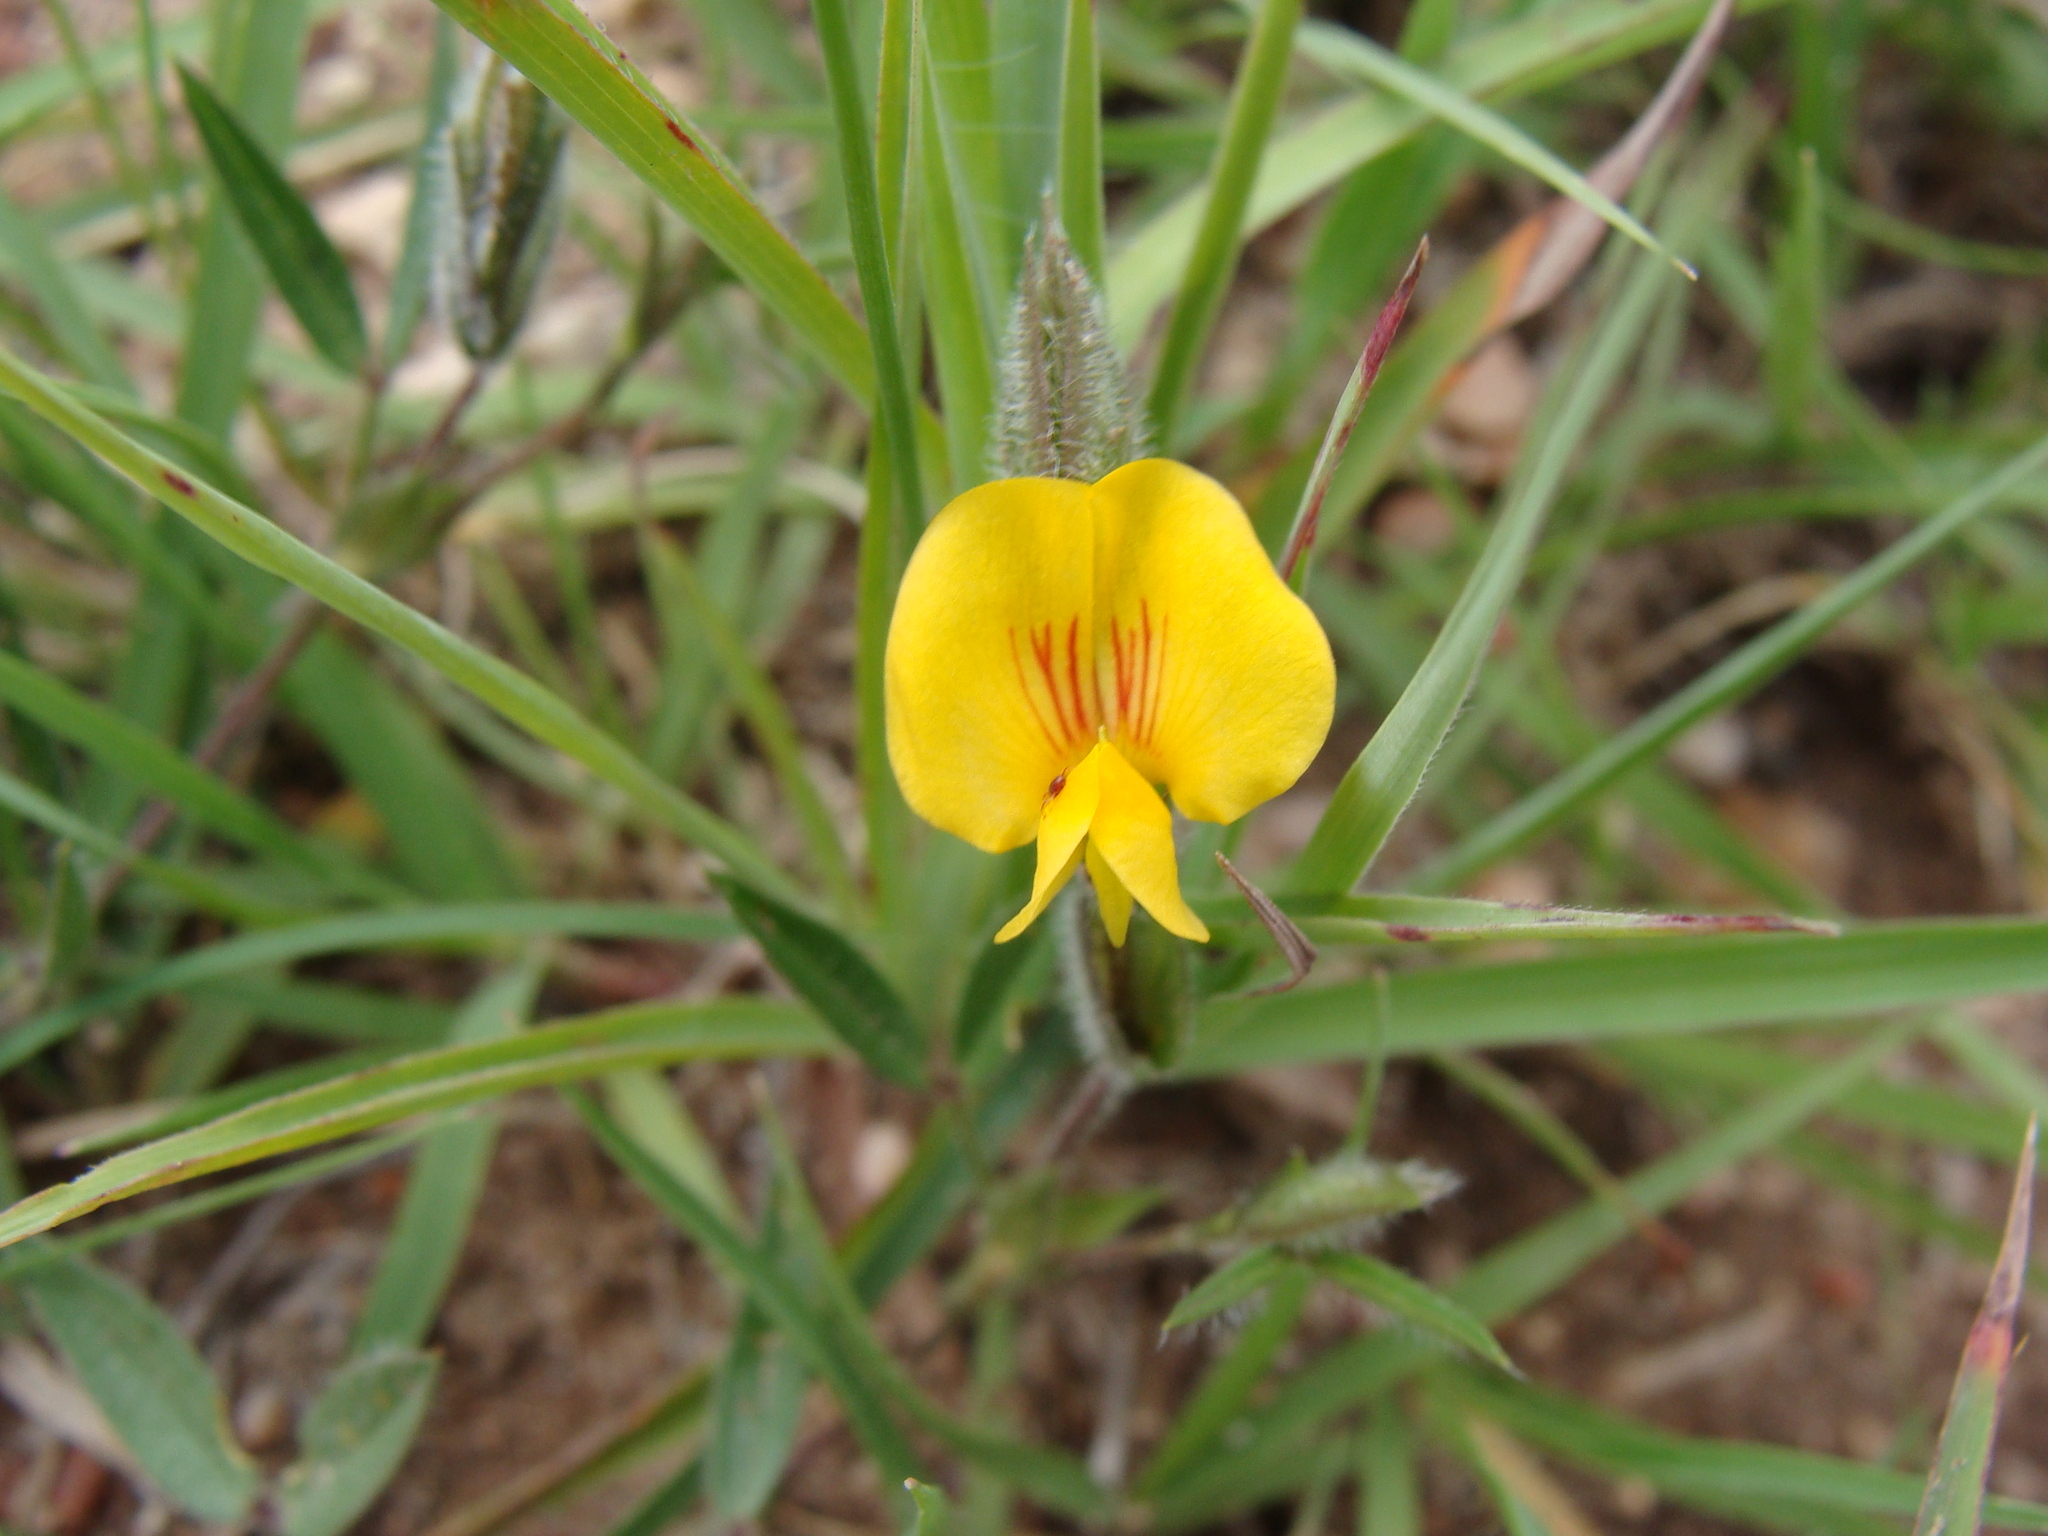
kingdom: Plantae
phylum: Tracheophyta
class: Magnoliopsida
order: Fabales
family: Fabaceae
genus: Zornia
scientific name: Zornia reticulata
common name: Reticulate viperina
